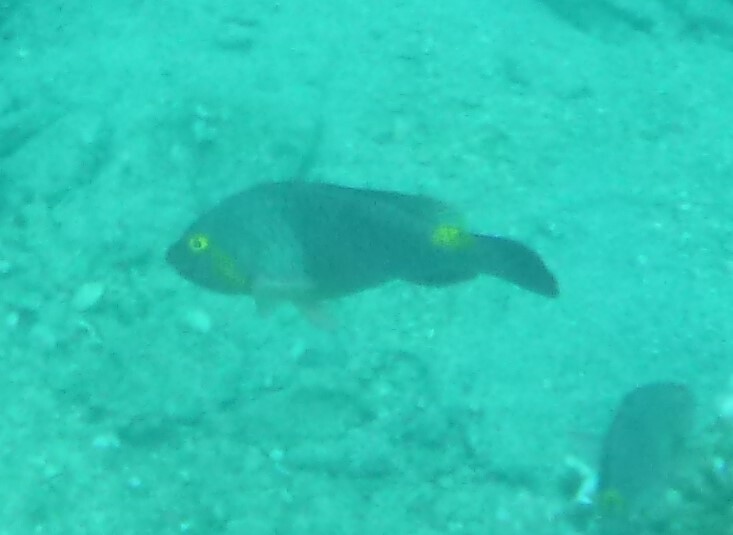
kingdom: Animalia
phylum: Chordata
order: Perciformes
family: Scaridae
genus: Sparisoma
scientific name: Sparisoma cretense
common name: Parrotfish
